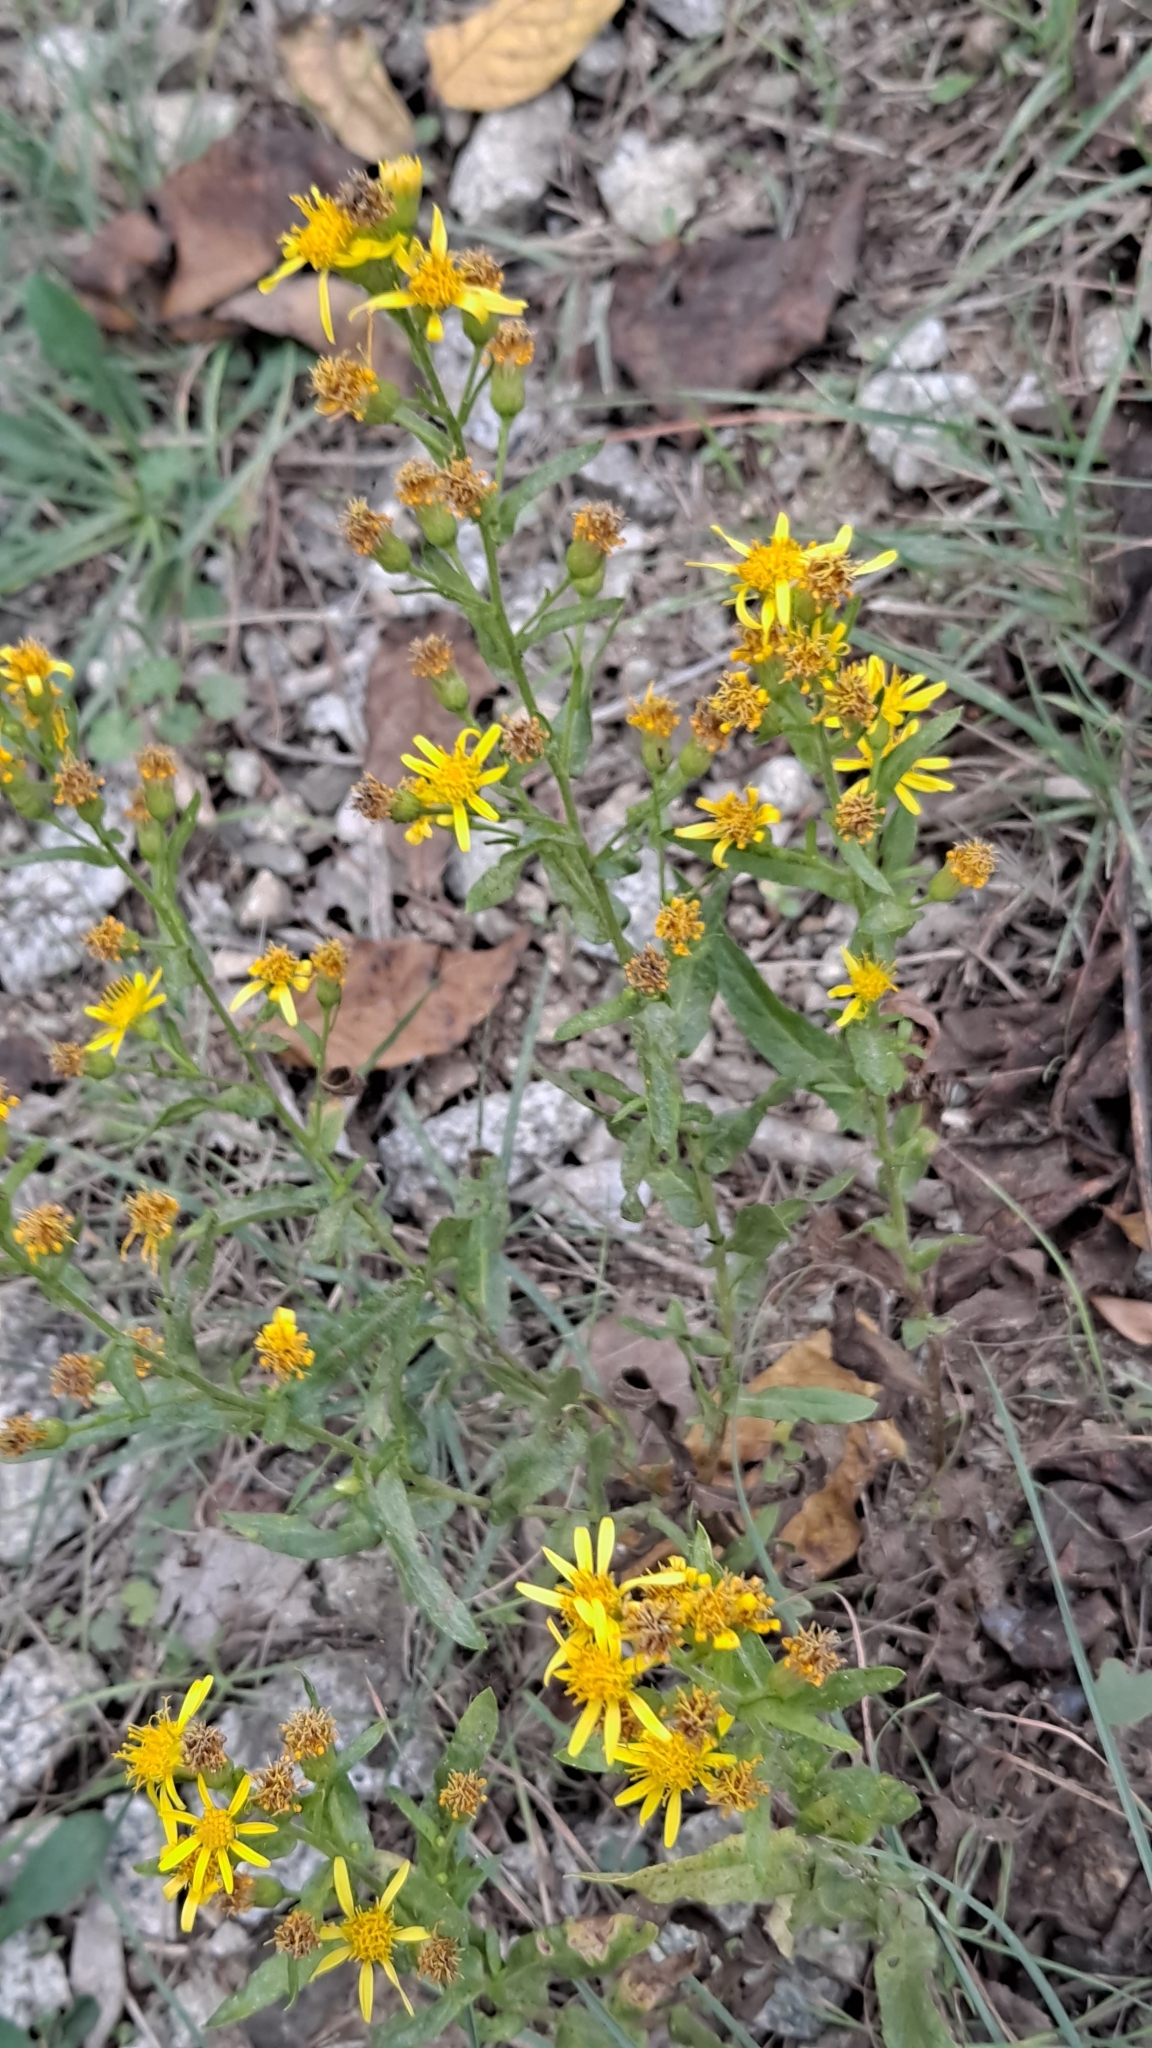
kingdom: Plantae
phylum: Tracheophyta
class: Magnoliopsida
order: Asterales
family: Asteraceae
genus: Dittrichia
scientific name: Dittrichia viscosa
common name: Woody fleabane
